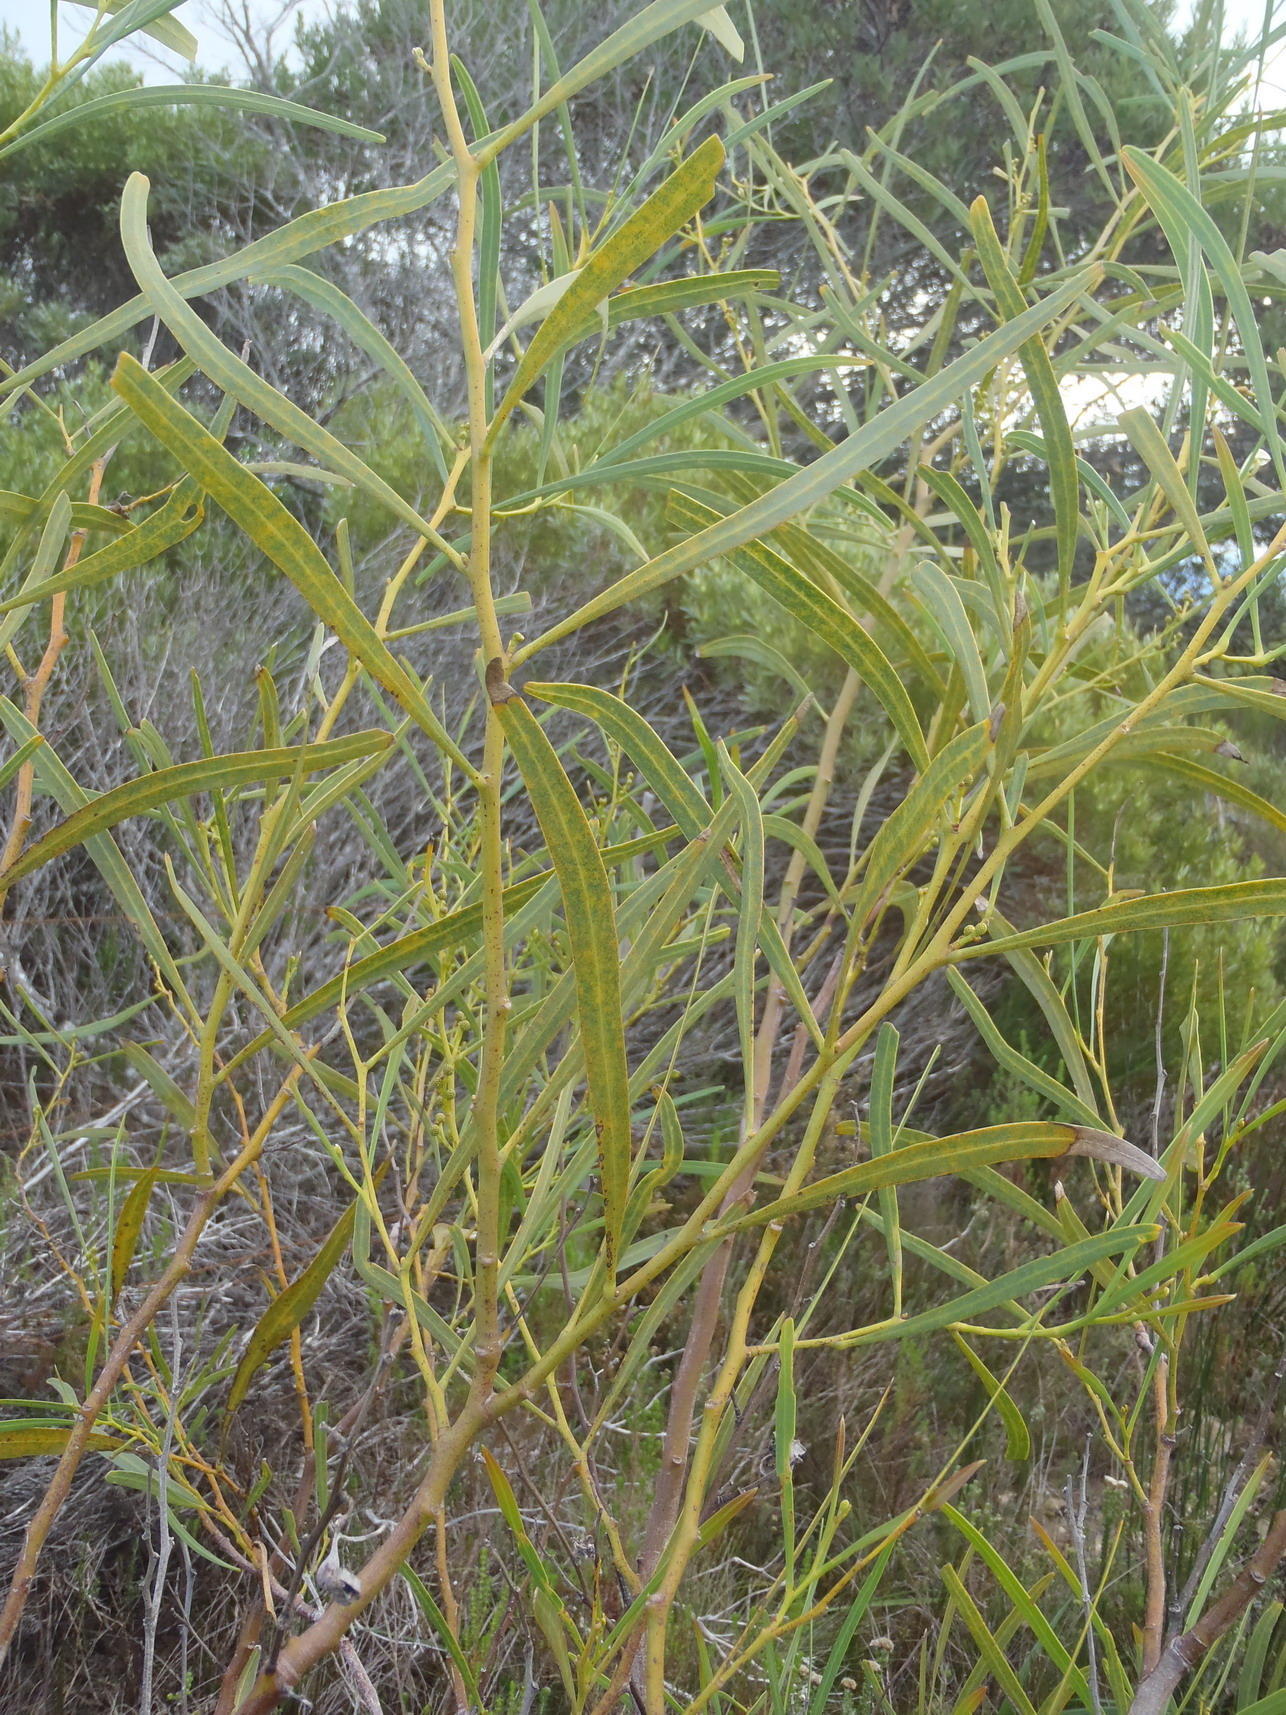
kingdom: Plantae
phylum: Tracheophyta
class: Magnoliopsida
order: Fabales
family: Fabaceae
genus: Acacia
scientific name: Acacia saligna
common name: Orange wattle
